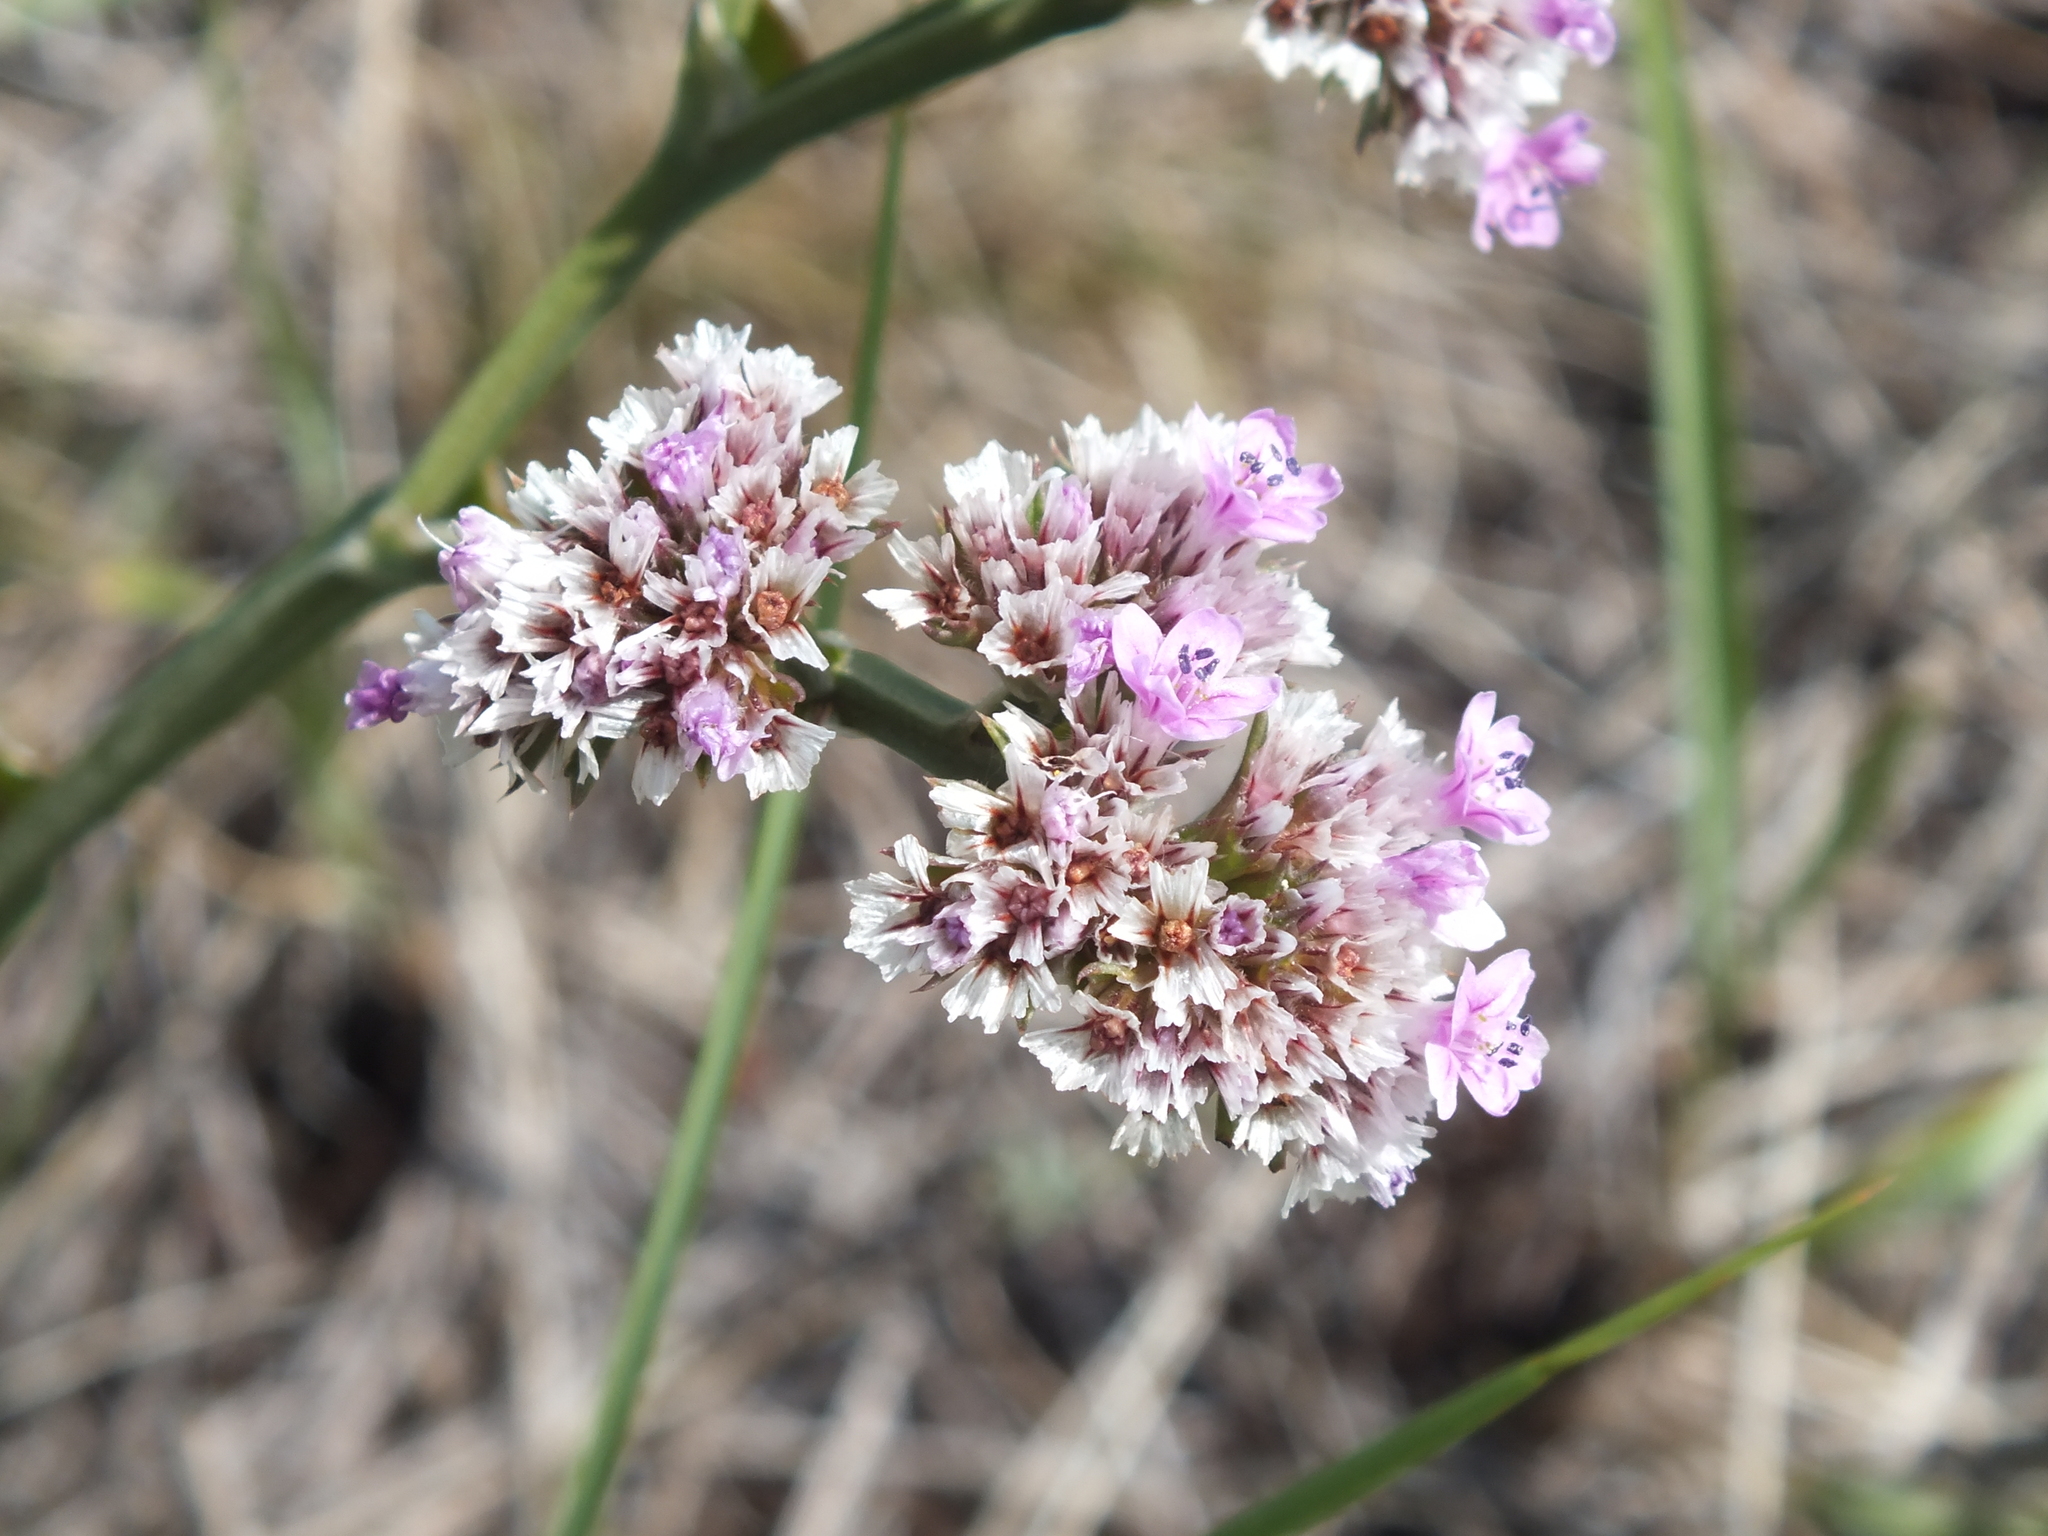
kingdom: Plantae
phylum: Tracheophyta
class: Magnoliopsida
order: Caryophyllales
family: Plumbaginaceae
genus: Goniolimon
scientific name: Goniolimon speciosum
